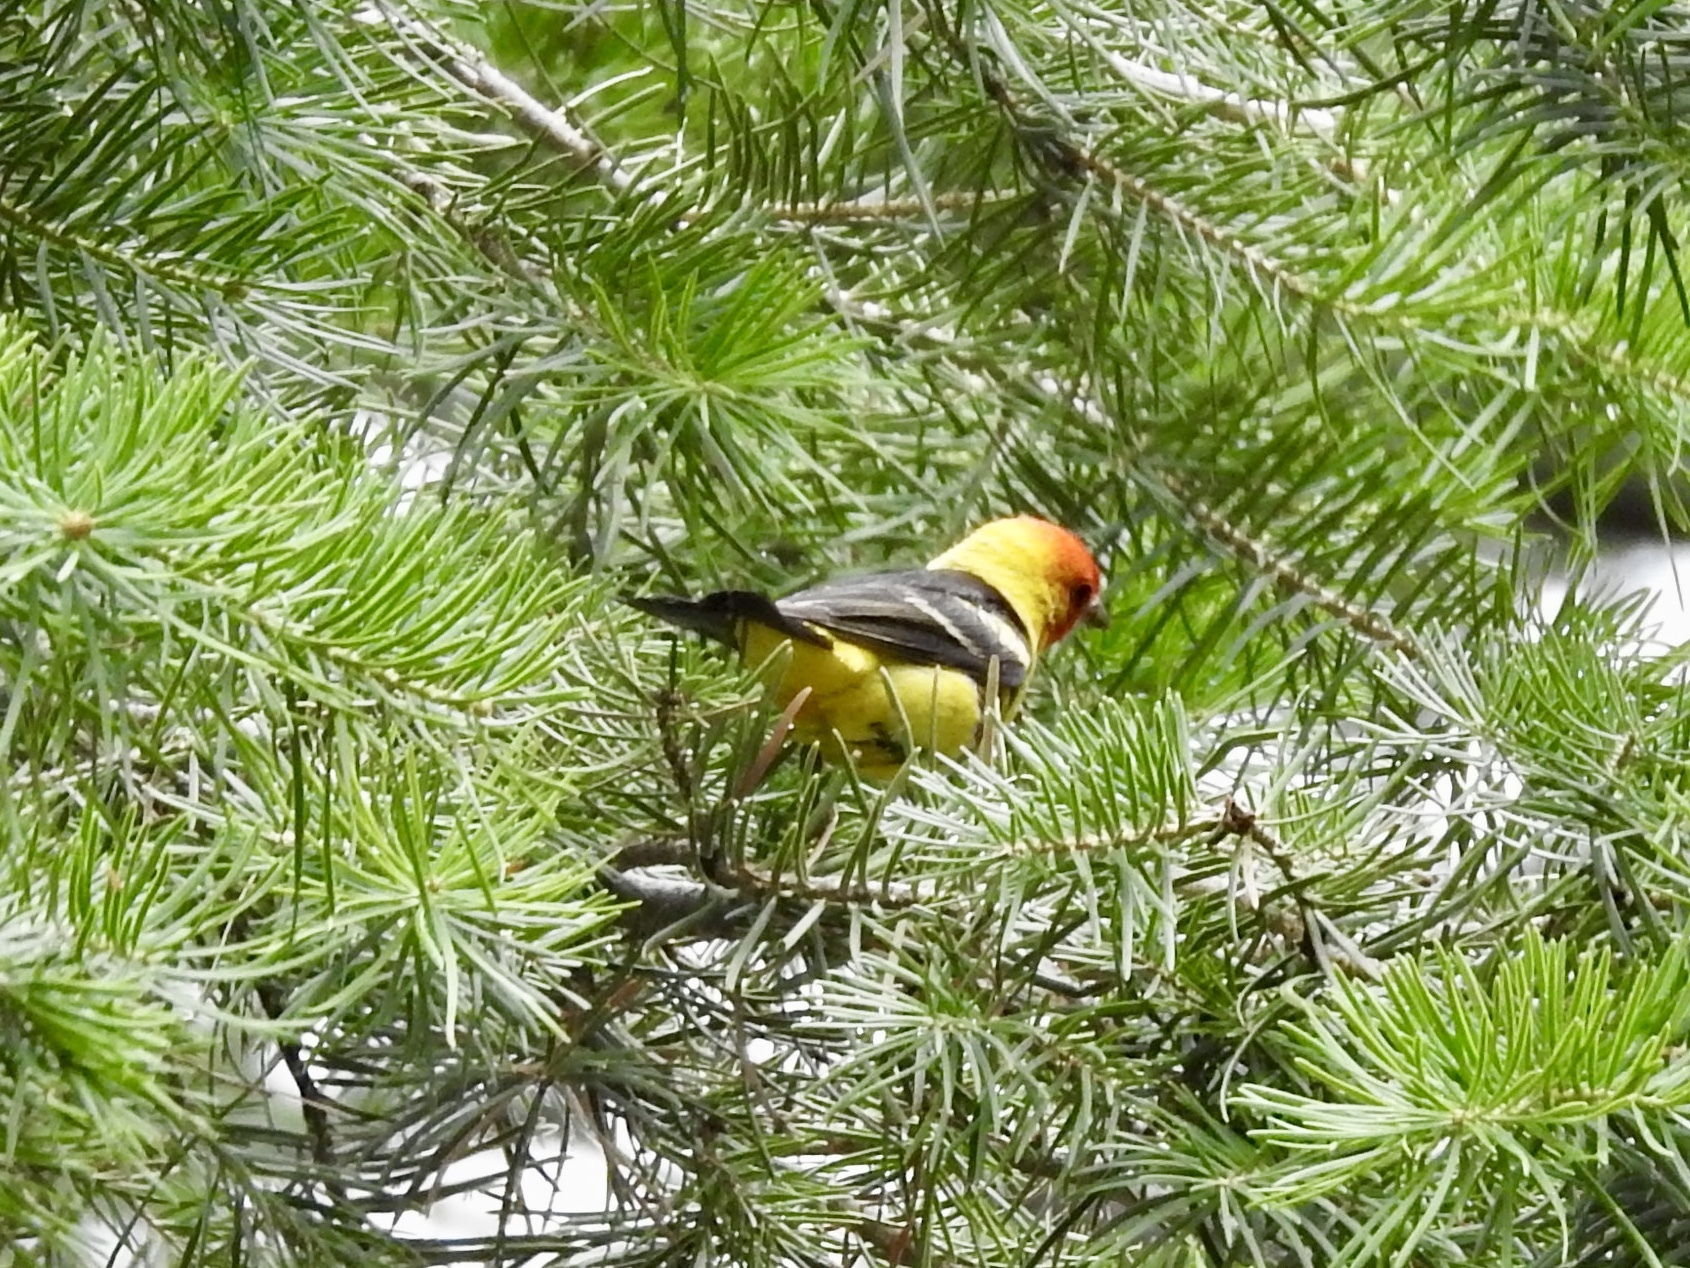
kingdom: Animalia
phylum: Chordata
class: Aves
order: Passeriformes
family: Cardinalidae
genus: Piranga
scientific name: Piranga ludoviciana
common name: Western tanager
